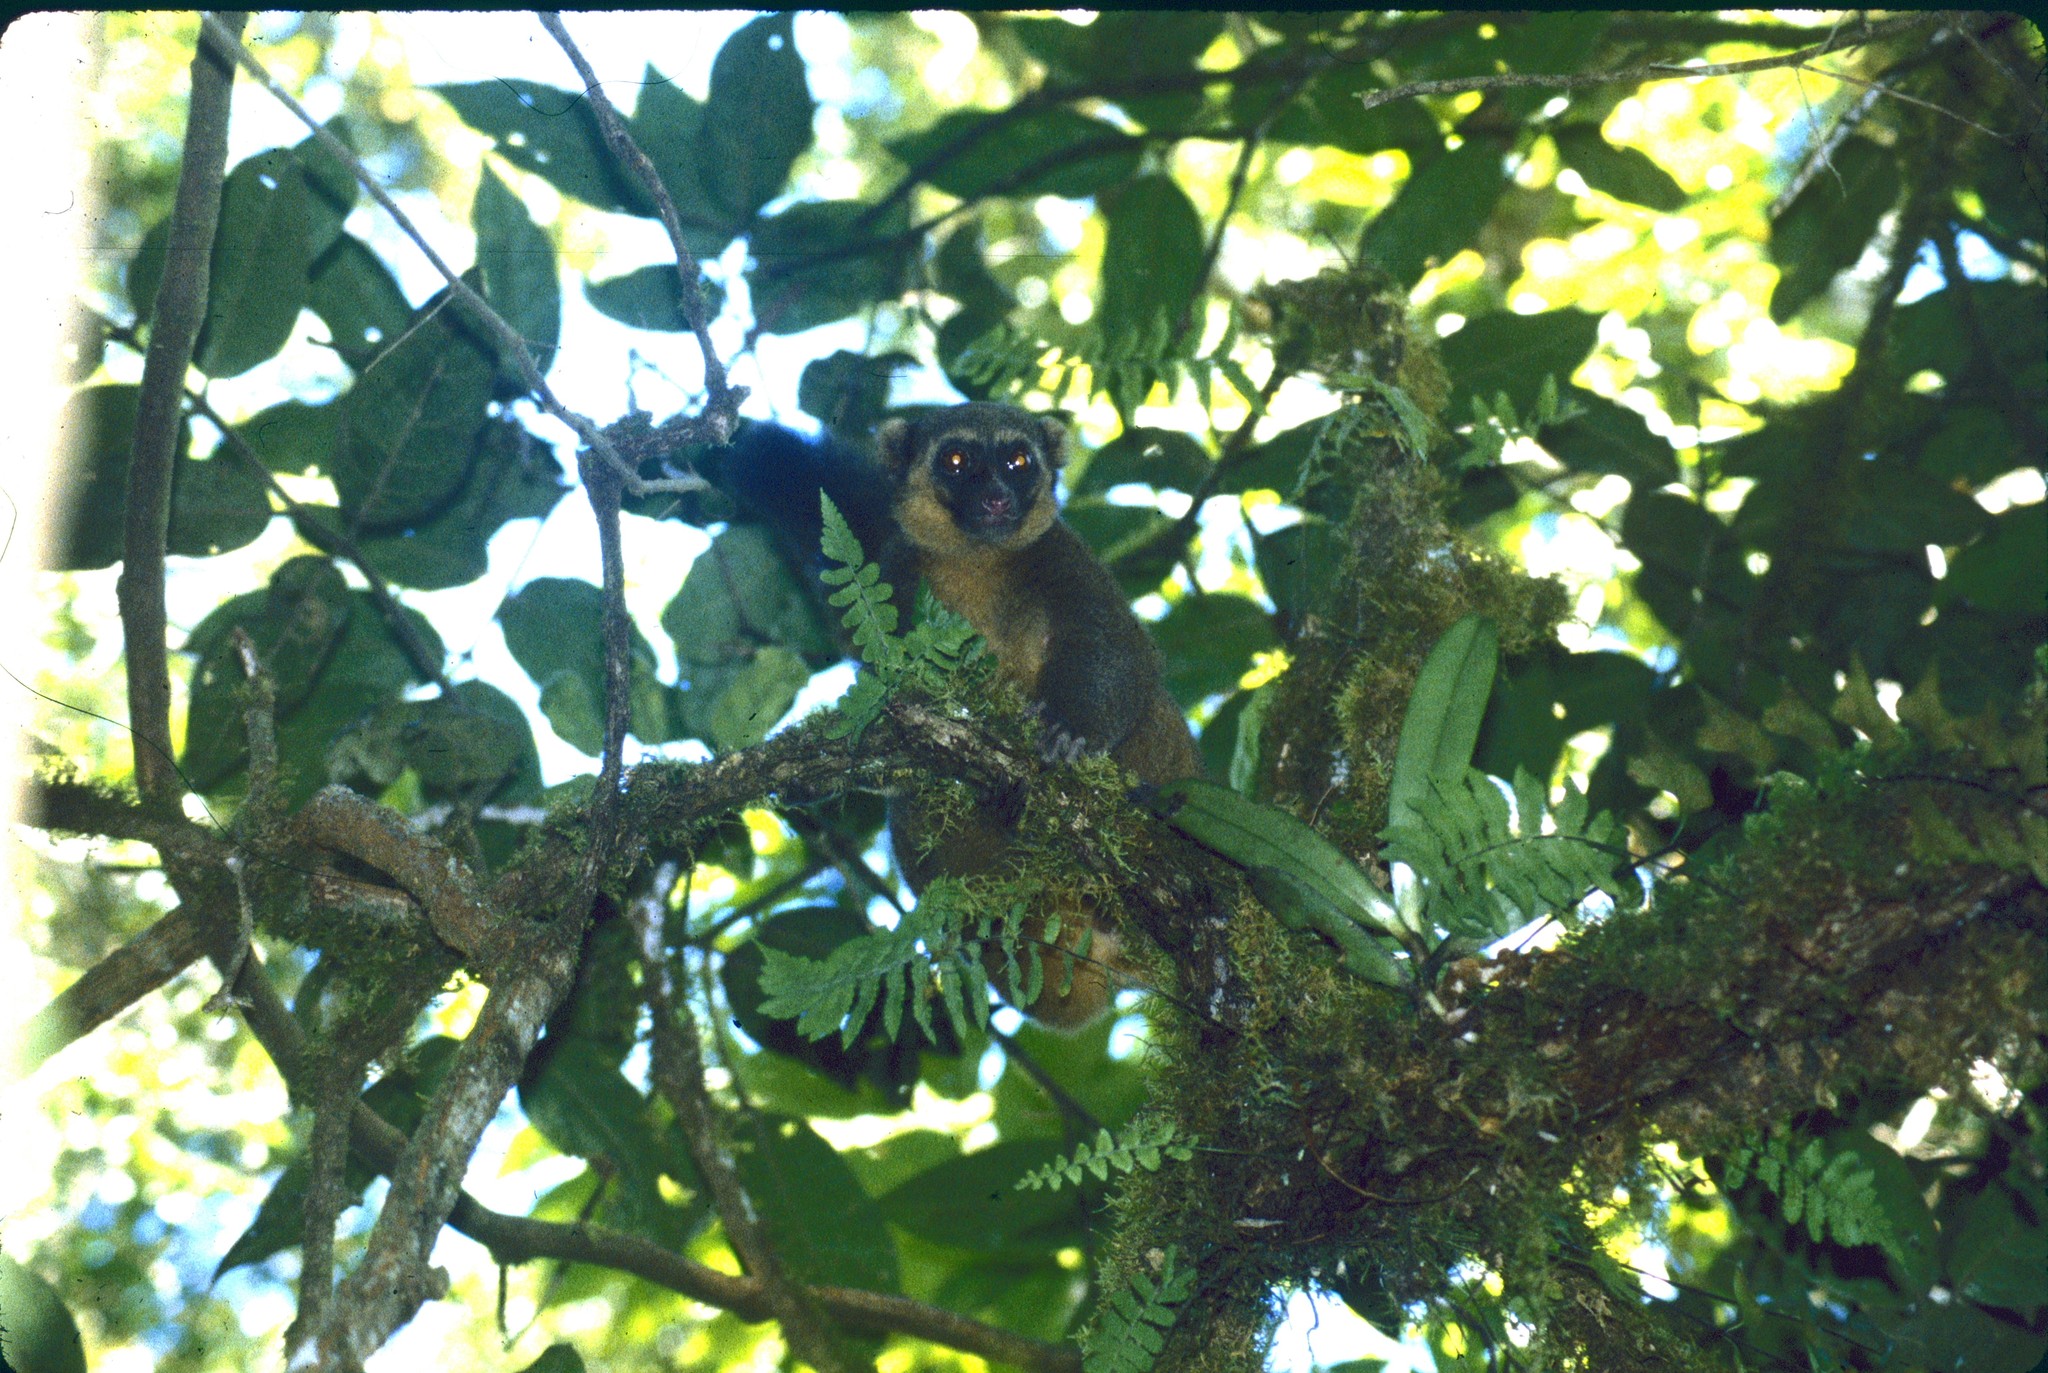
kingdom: Animalia
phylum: Chordata
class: Mammalia
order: Primates
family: Lemuridae
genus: Hapalemur
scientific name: Hapalemur aureus
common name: Golden bamboo lemur
